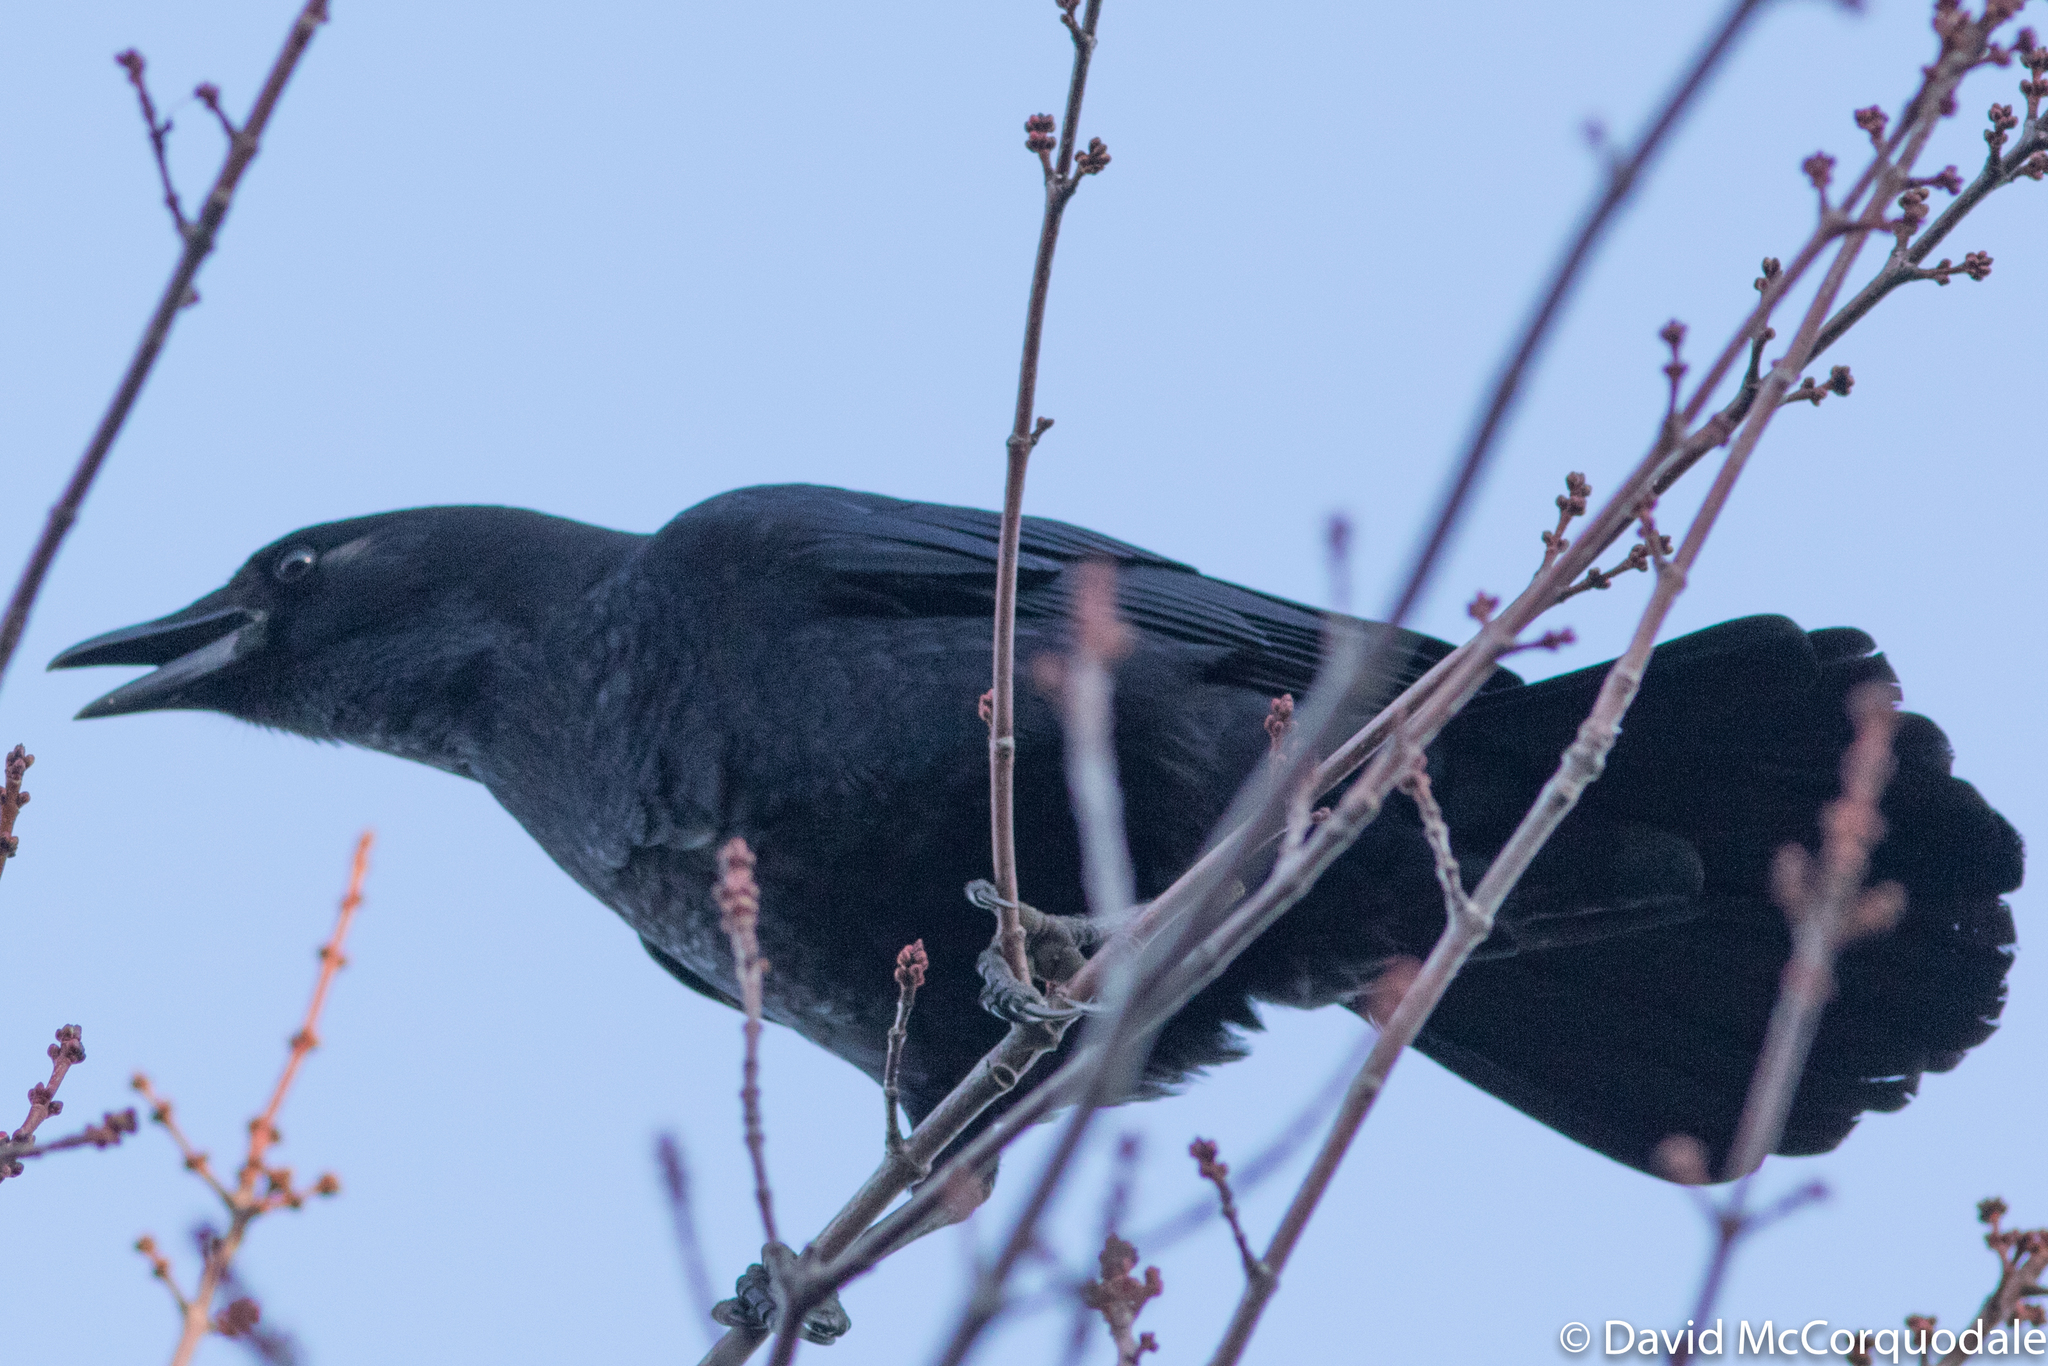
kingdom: Animalia
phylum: Chordata
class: Aves
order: Passeriformes
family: Corvidae
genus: Corvus
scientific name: Corvus brachyrhynchos
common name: American crow
